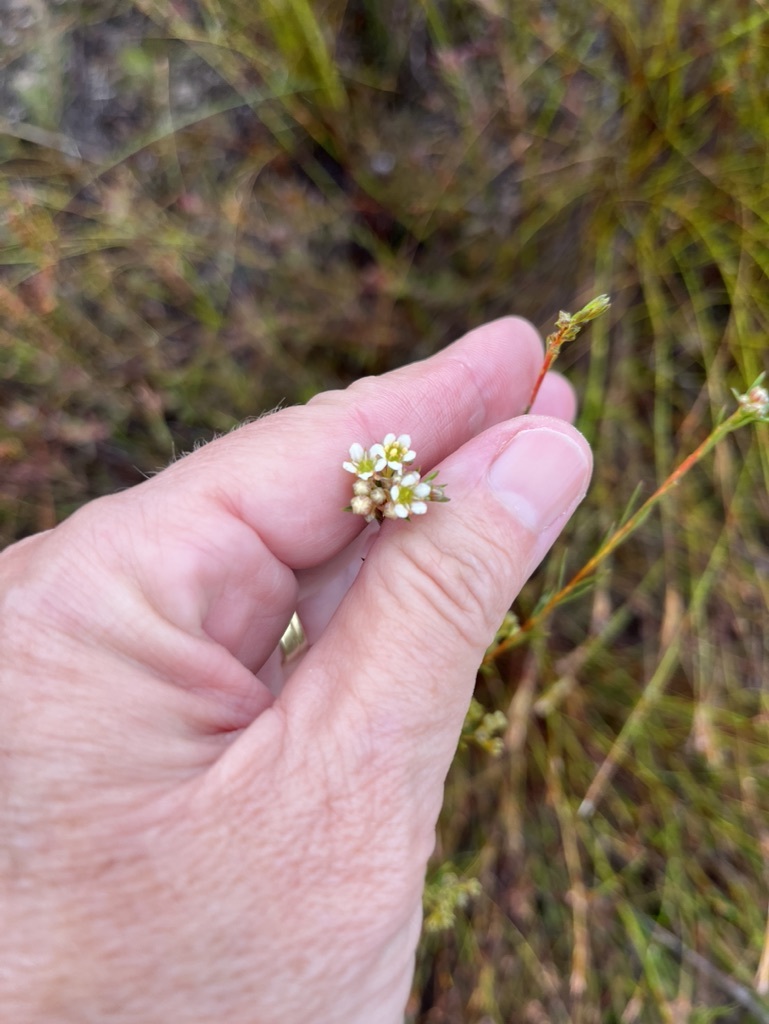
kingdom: Plantae
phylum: Tracheophyta
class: Magnoliopsida
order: Sapindales
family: Rutaceae
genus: Diosma
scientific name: Diosma hirsuta
